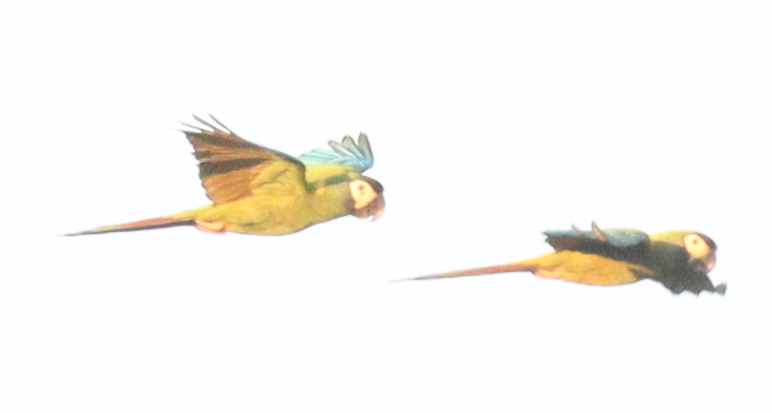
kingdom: Animalia
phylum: Chordata
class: Aves
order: Psittaciformes
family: Psittacidae
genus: Primolius
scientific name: Primolius auricollis
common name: Golden-collared macaw
